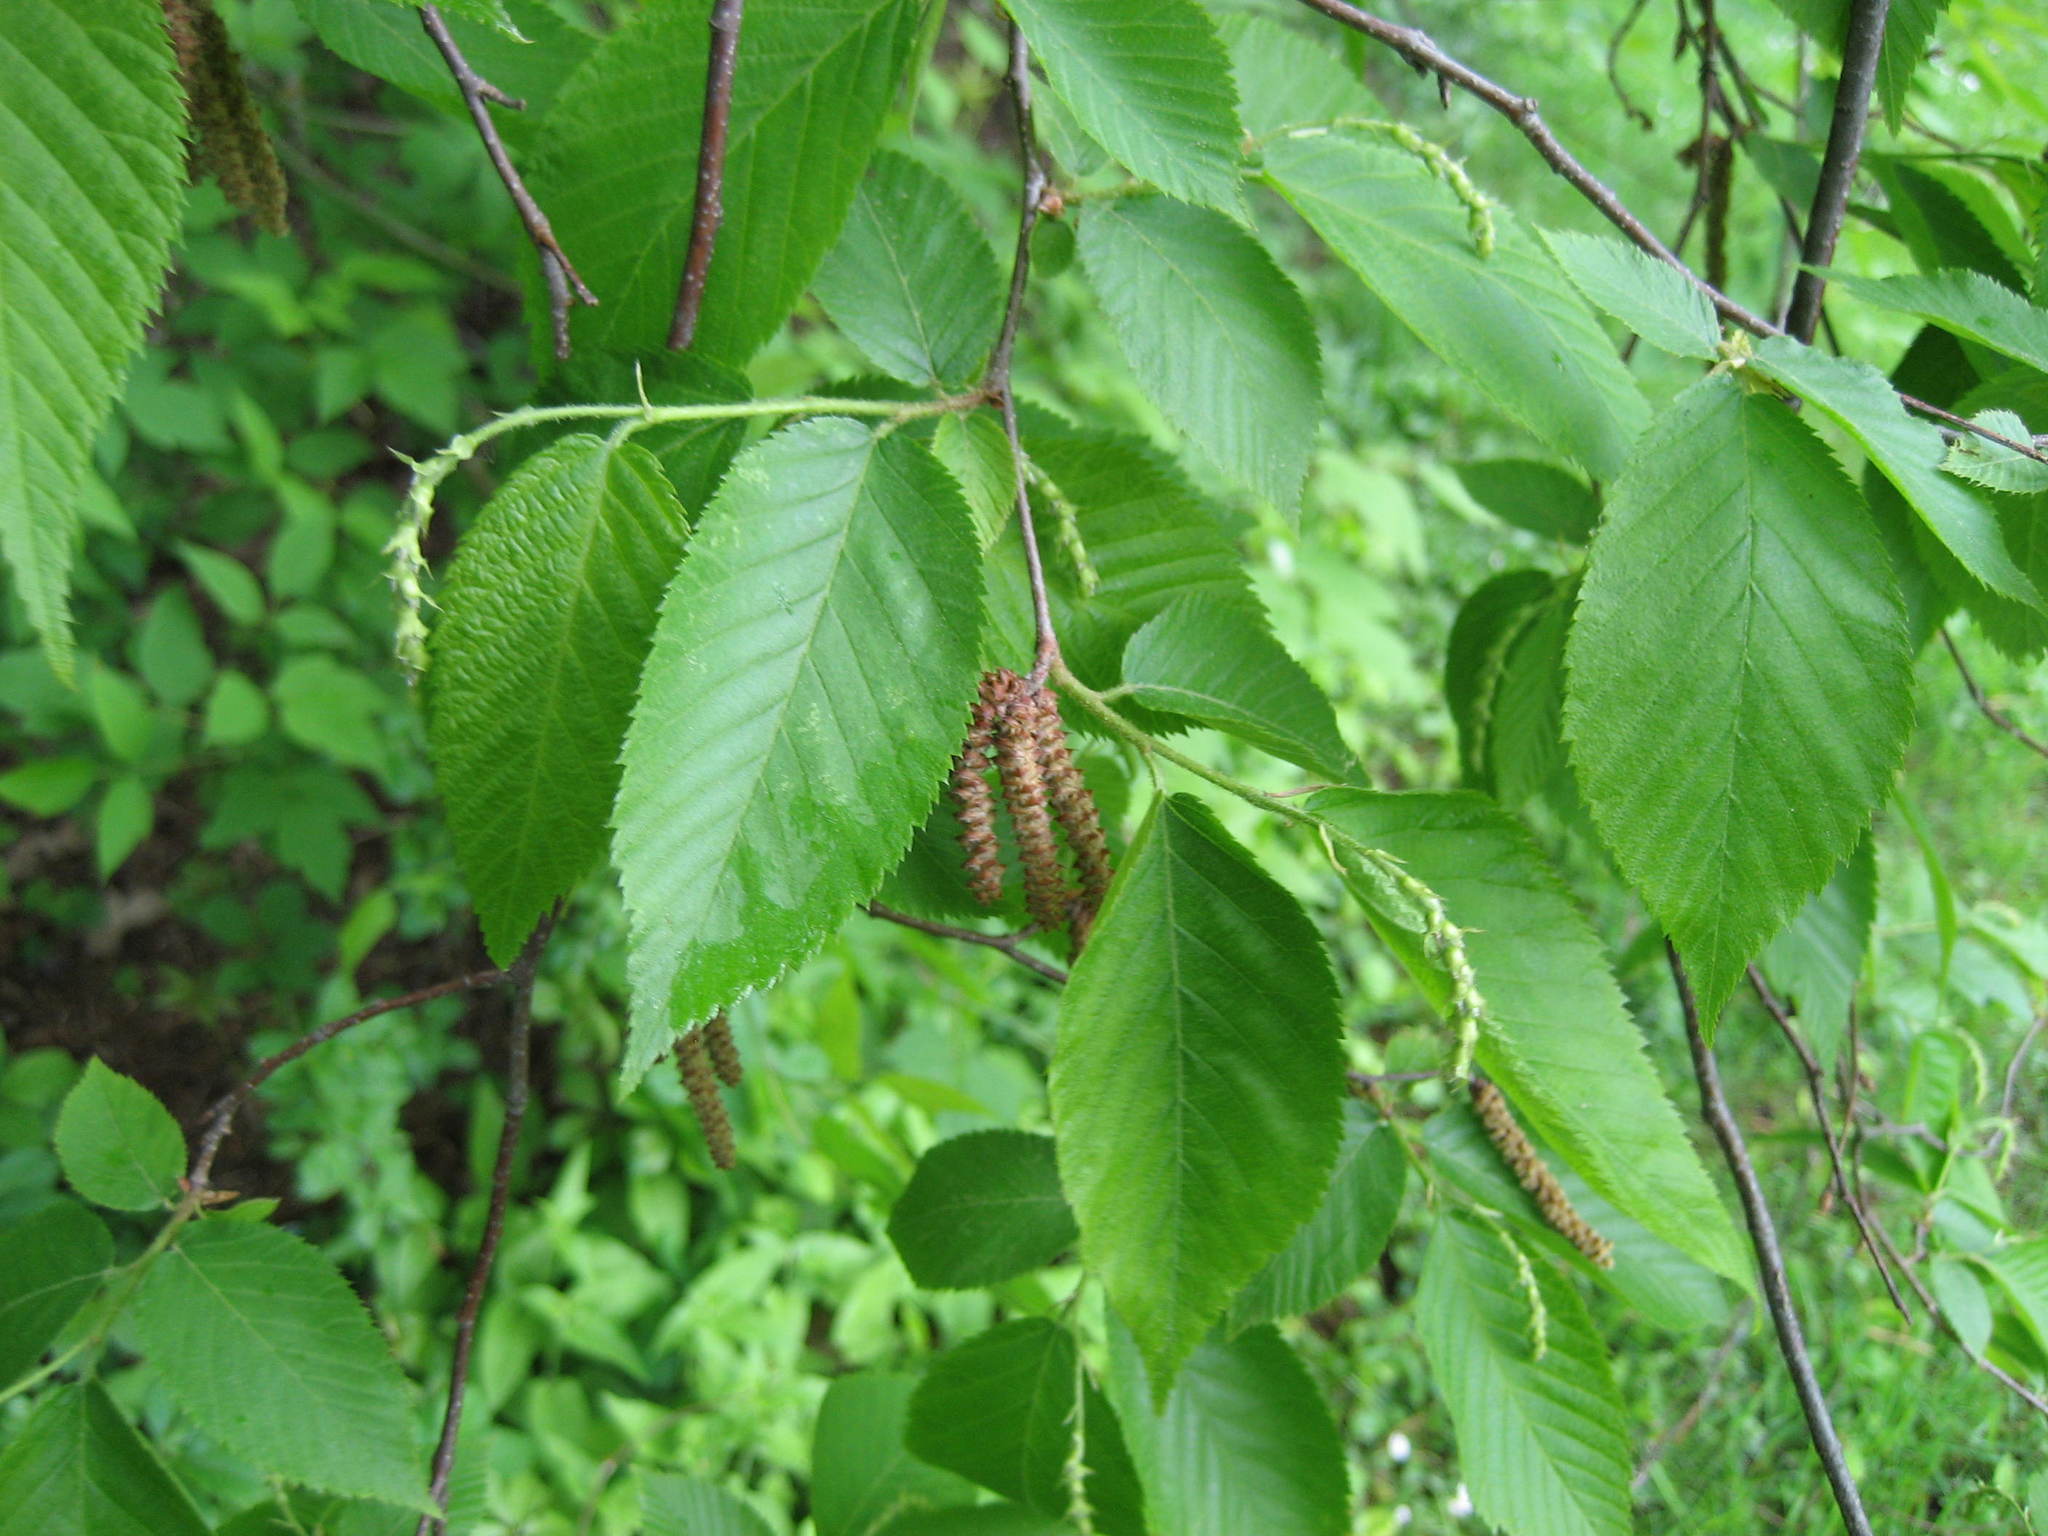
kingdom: Plantae
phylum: Tracheophyta
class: Magnoliopsida
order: Fagales
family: Betulaceae
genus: Ostrya
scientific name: Ostrya virginiana
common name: Ironwood
